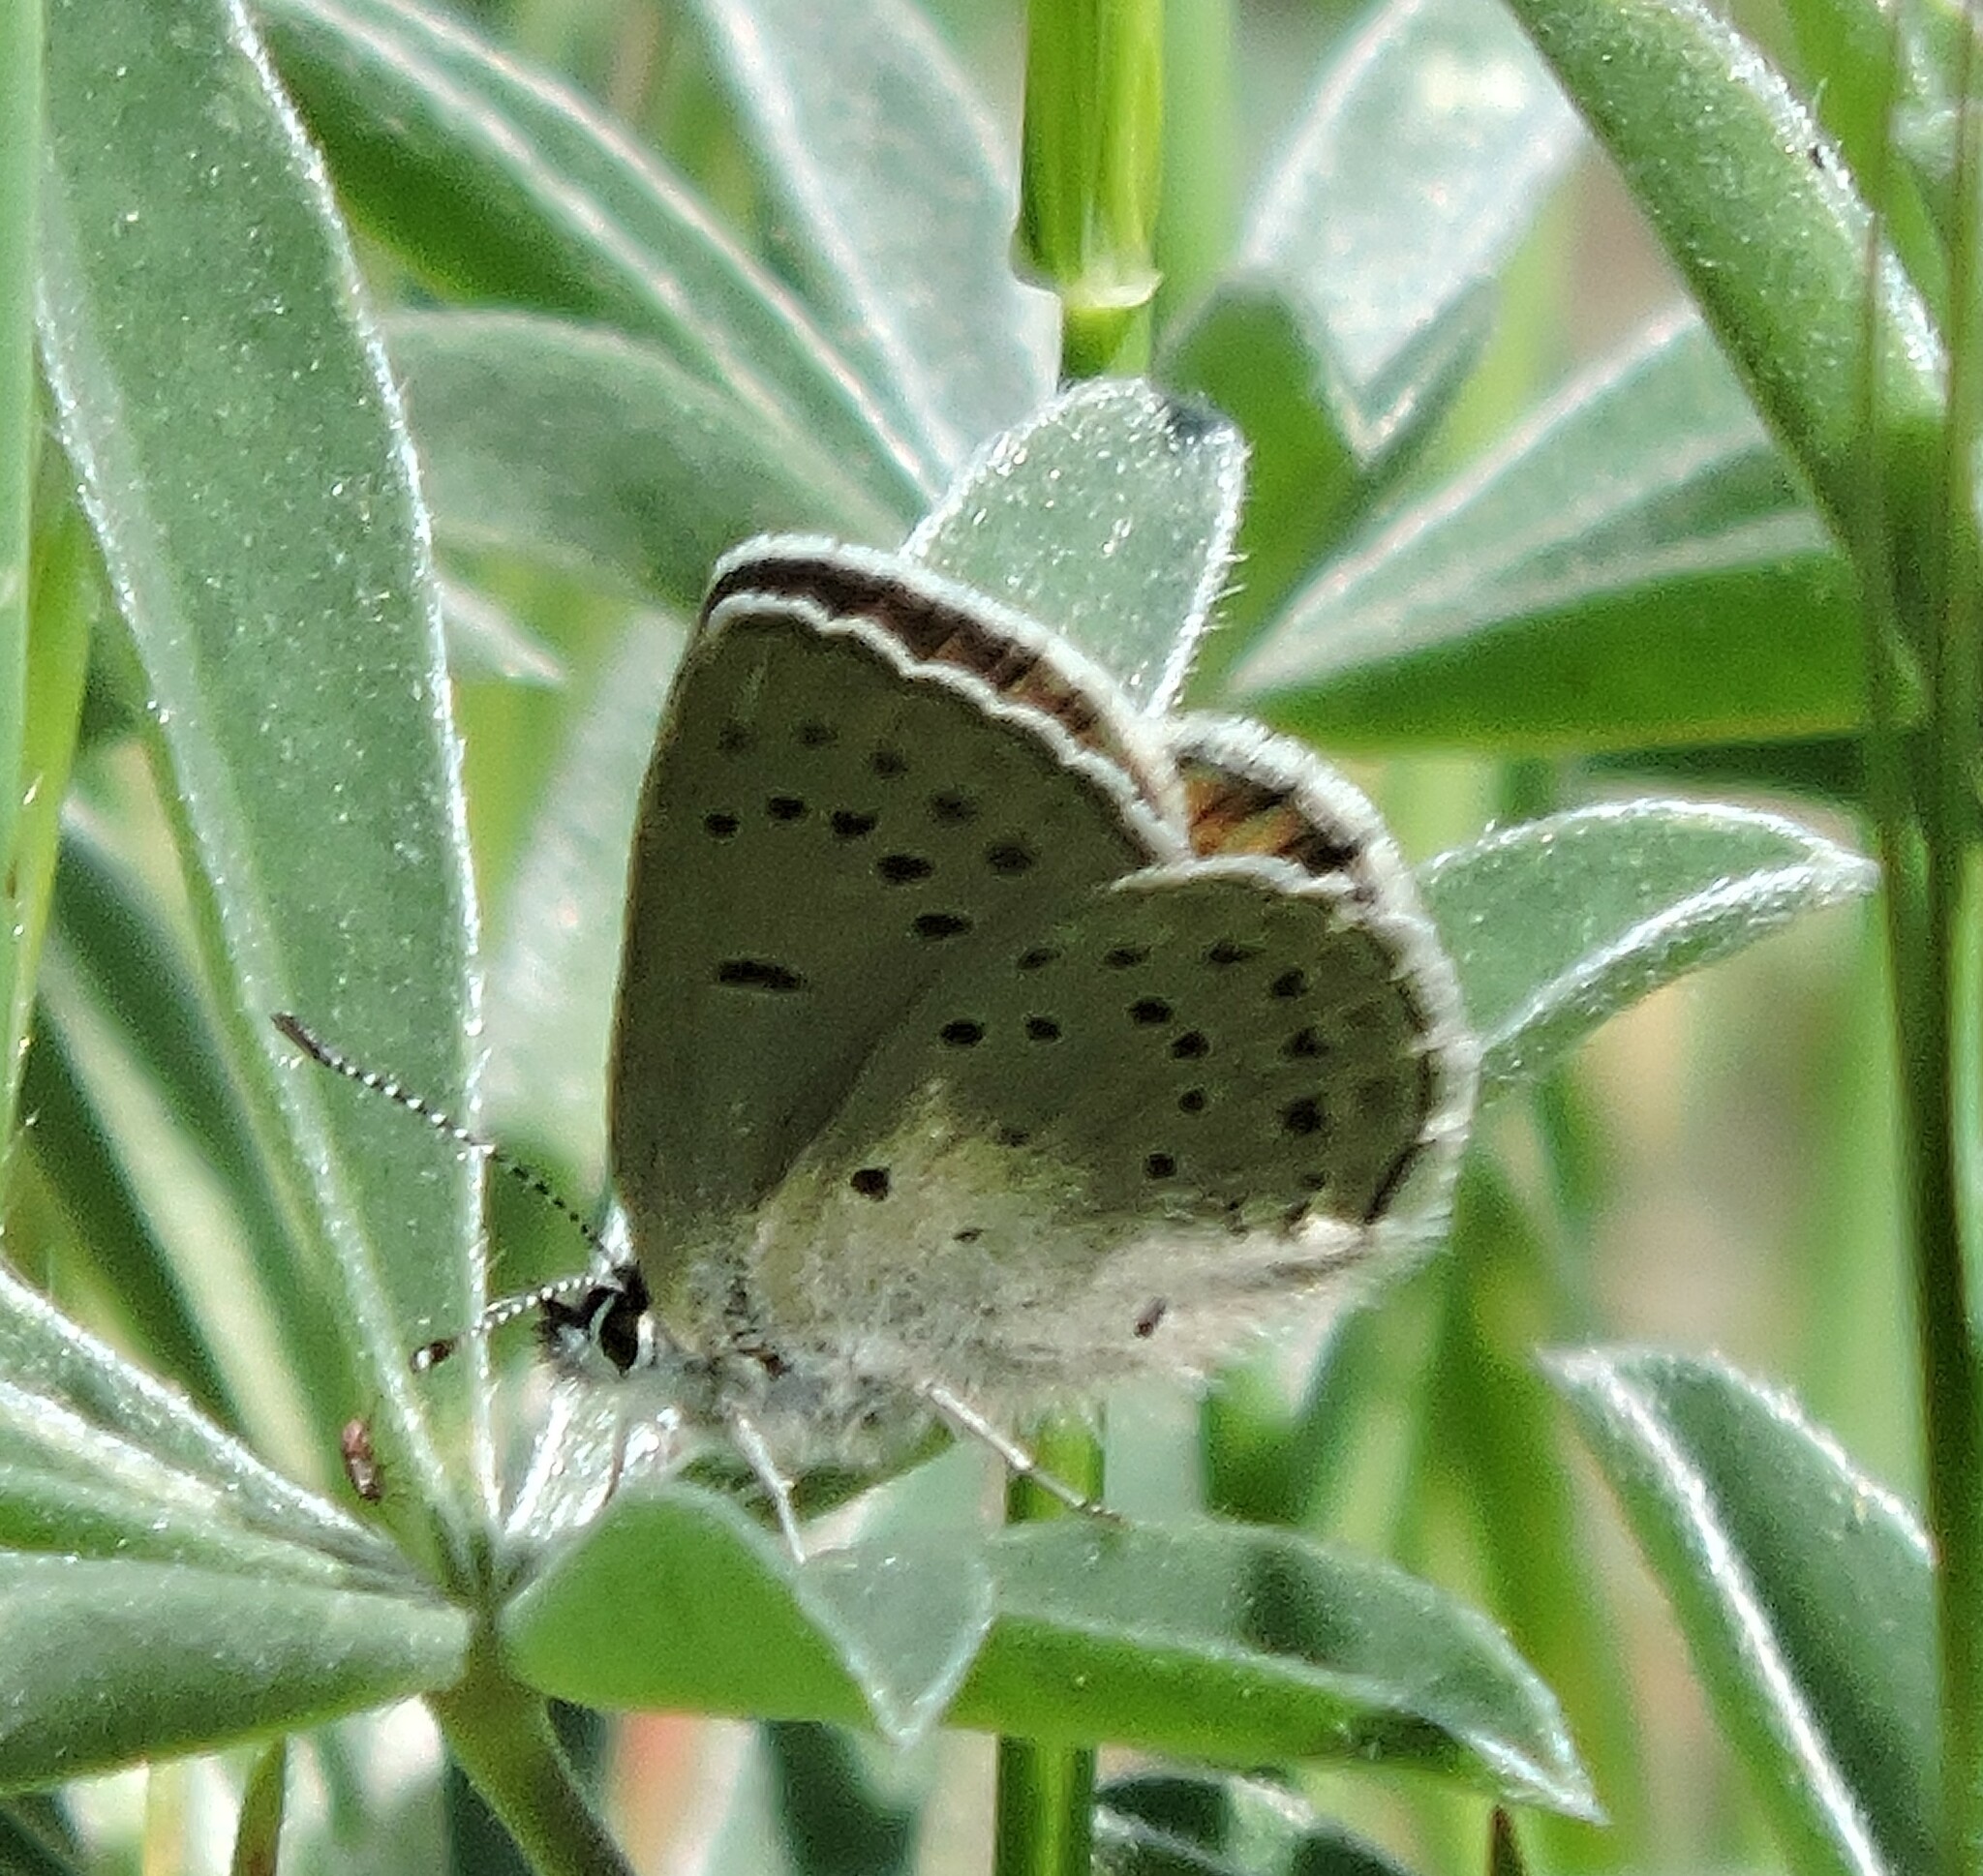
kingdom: Animalia
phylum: Arthropoda
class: Insecta
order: Lepidoptera
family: Lycaenidae
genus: Icaricia
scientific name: Icaricia icarioides
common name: Boisduval's blue
